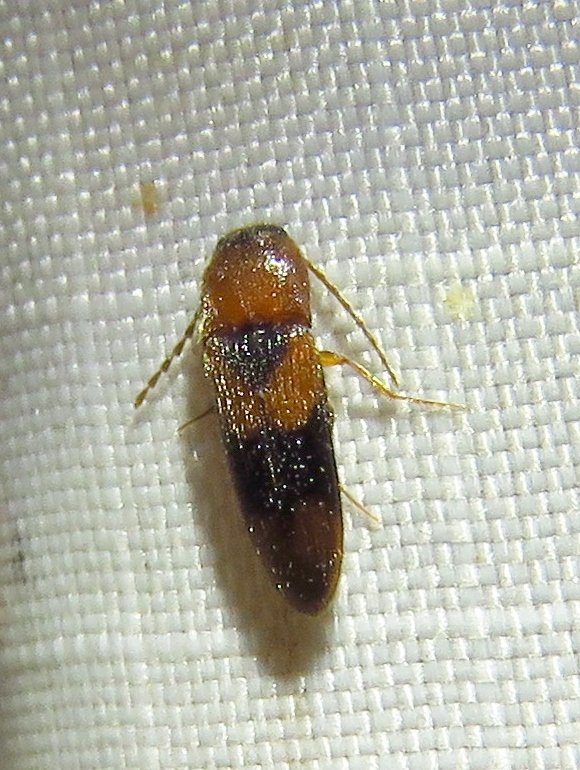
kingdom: Animalia
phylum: Arthropoda
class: Insecta
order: Coleoptera
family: Elateridae
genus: Ampedus
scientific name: Ampedus areolatus
